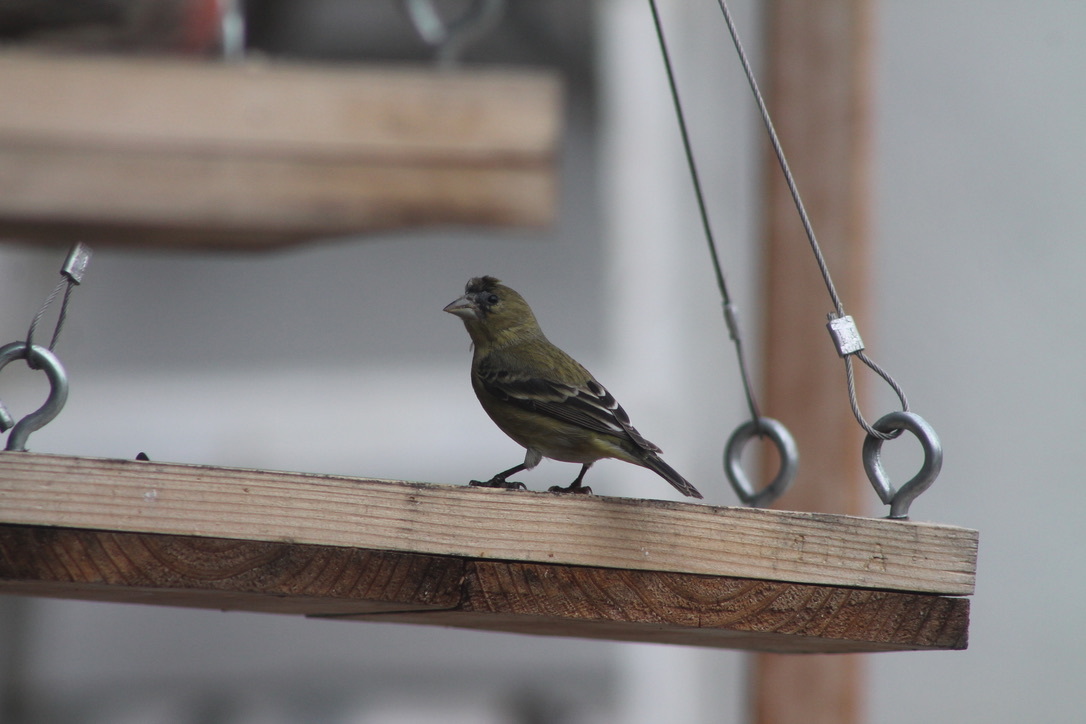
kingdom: Animalia
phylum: Chordata
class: Aves
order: Passeriformes
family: Fringillidae
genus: Spinus
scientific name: Spinus psaltria
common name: Lesser goldfinch
